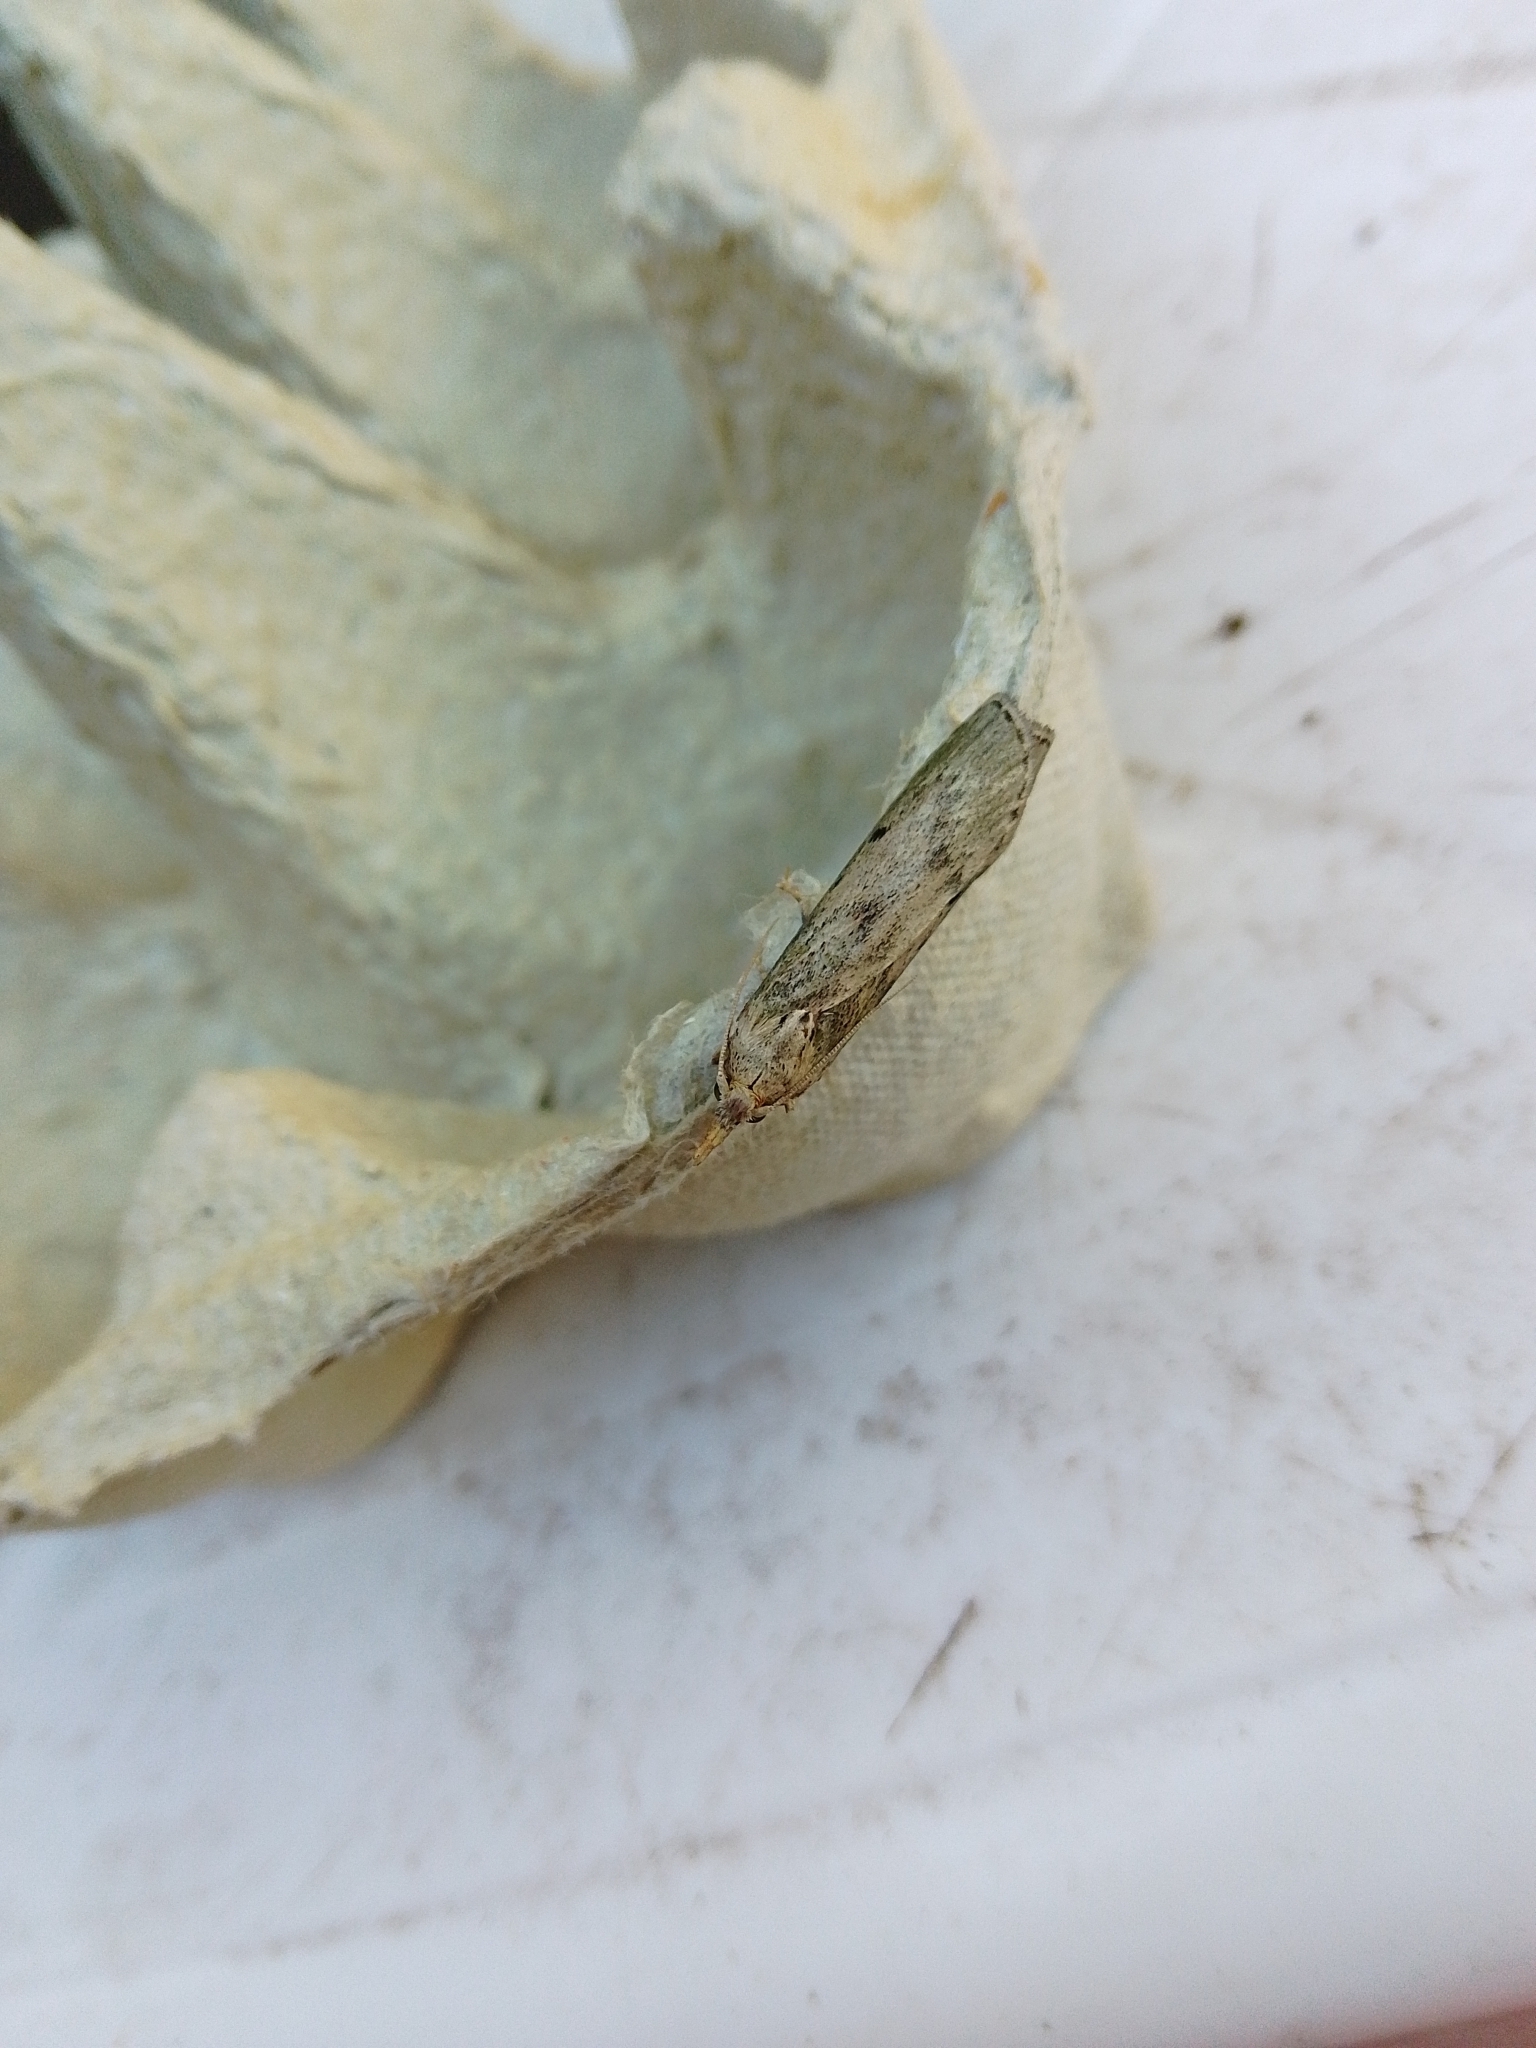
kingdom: Animalia
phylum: Arthropoda
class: Insecta
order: Lepidoptera
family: Pyralidae
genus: Aphomia
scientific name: Aphomia sociella
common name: Bee moth
